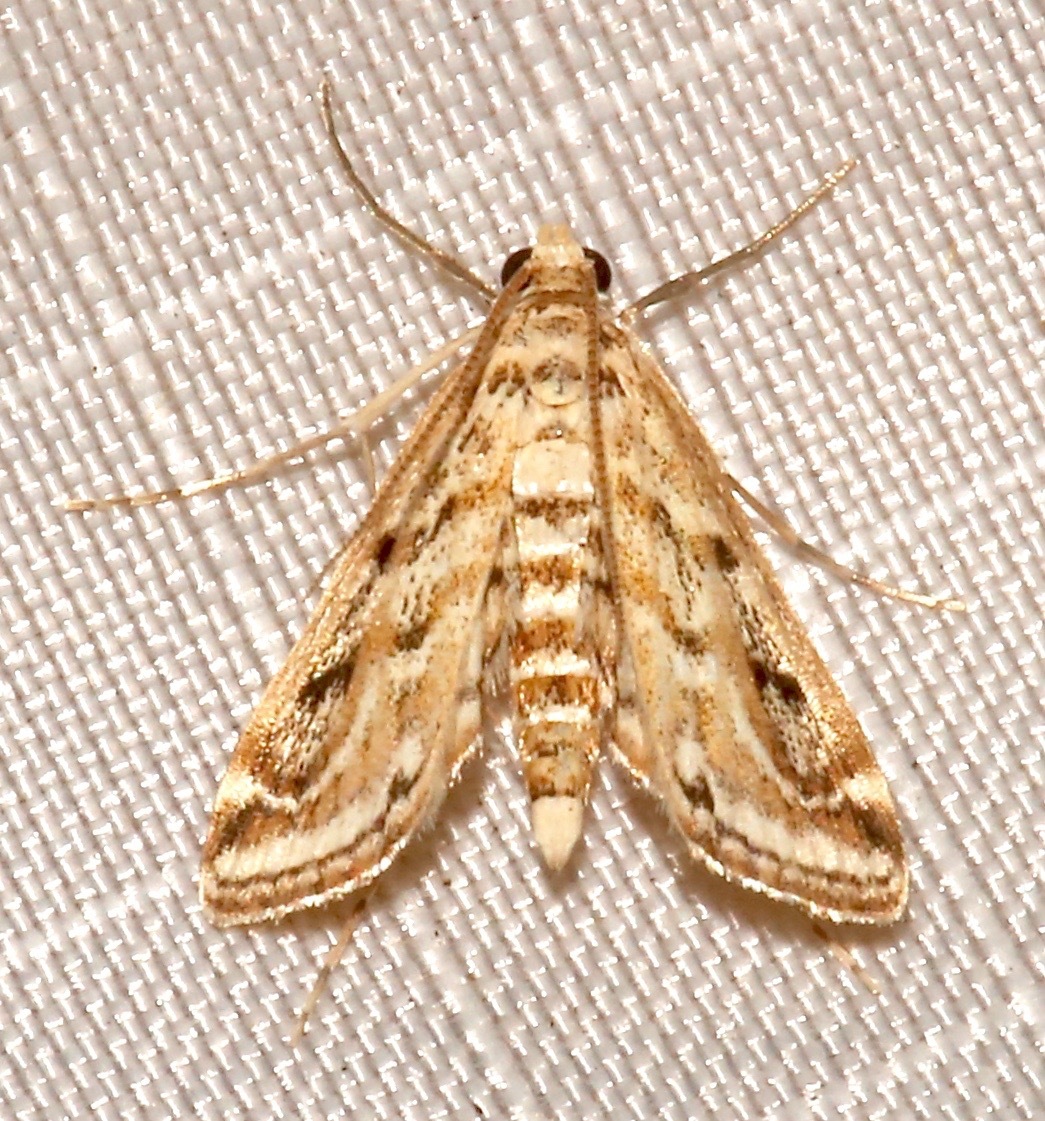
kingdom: Animalia
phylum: Arthropoda
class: Insecta
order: Lepidoptera
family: Crambidae
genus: Parapoynx
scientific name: Parapoynx allionealis
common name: Bladderwort casemaker
